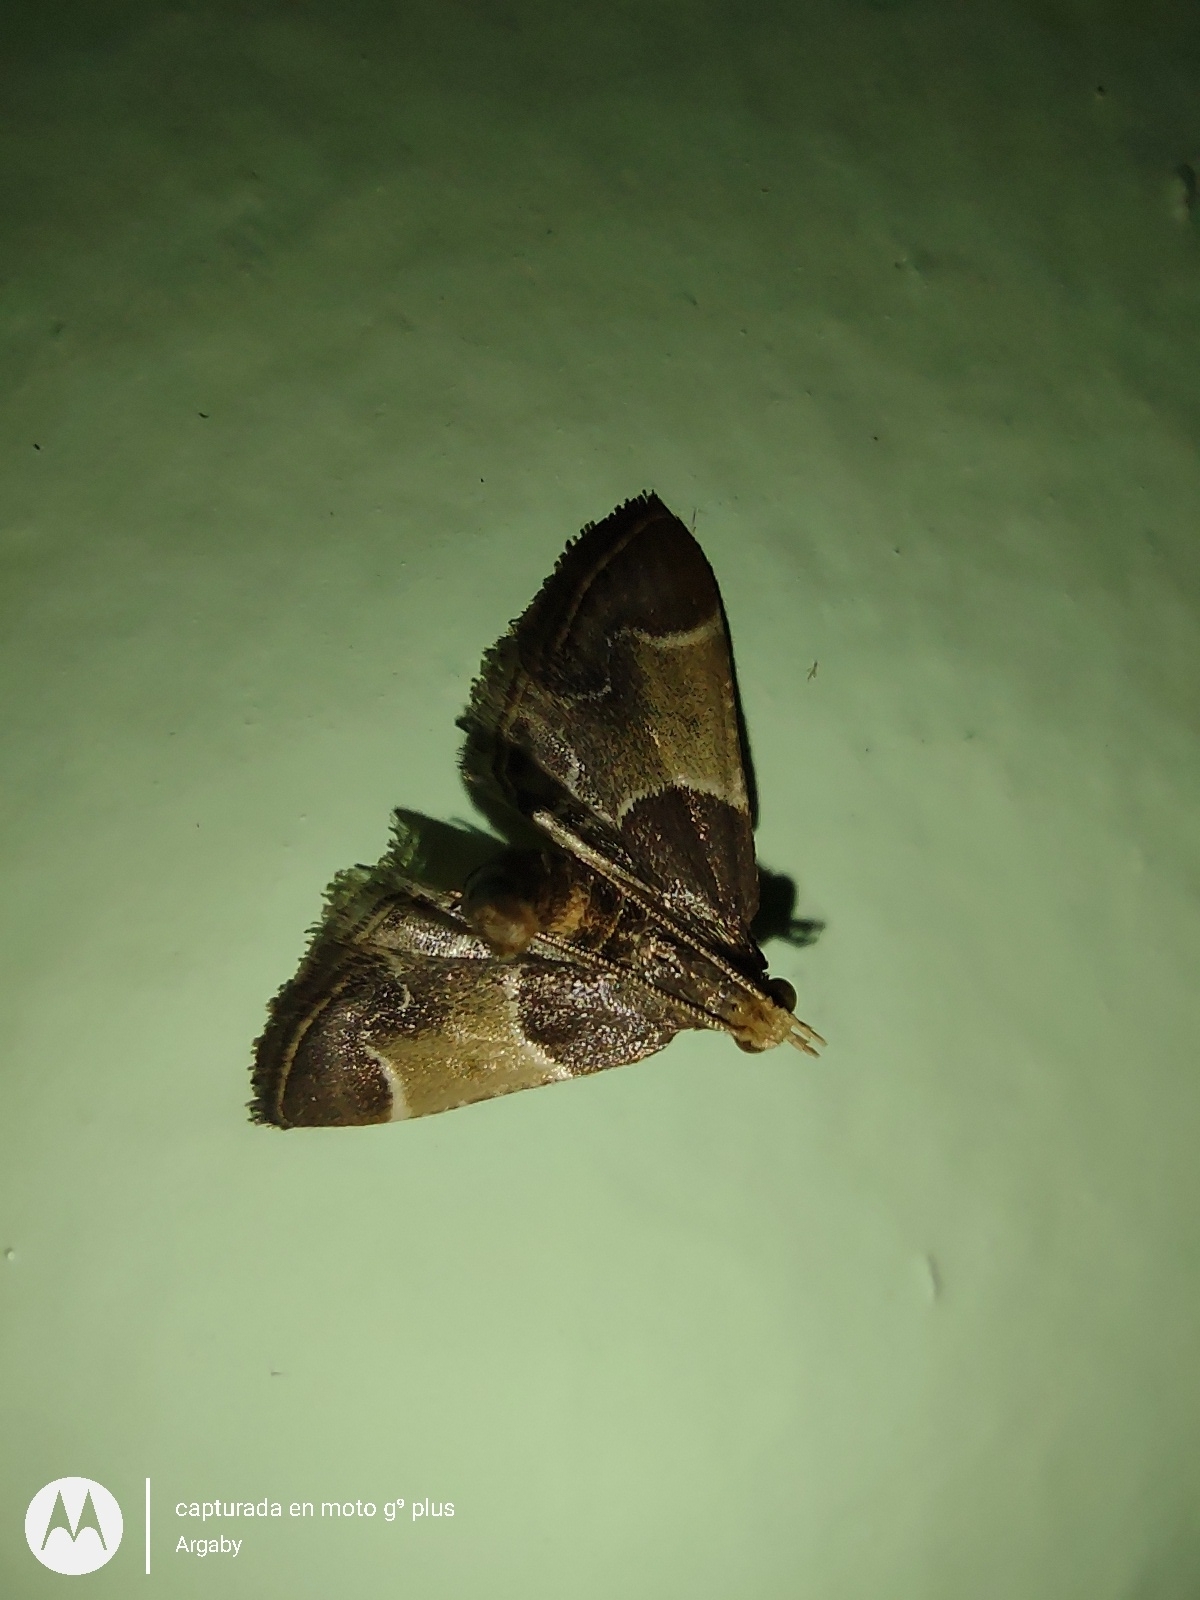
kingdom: Animalia
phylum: Arthropoda
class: Insecta
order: Lepidoptera
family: Pyralidae
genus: Pyralis
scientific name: Pyralis farinalis
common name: Meal moth
